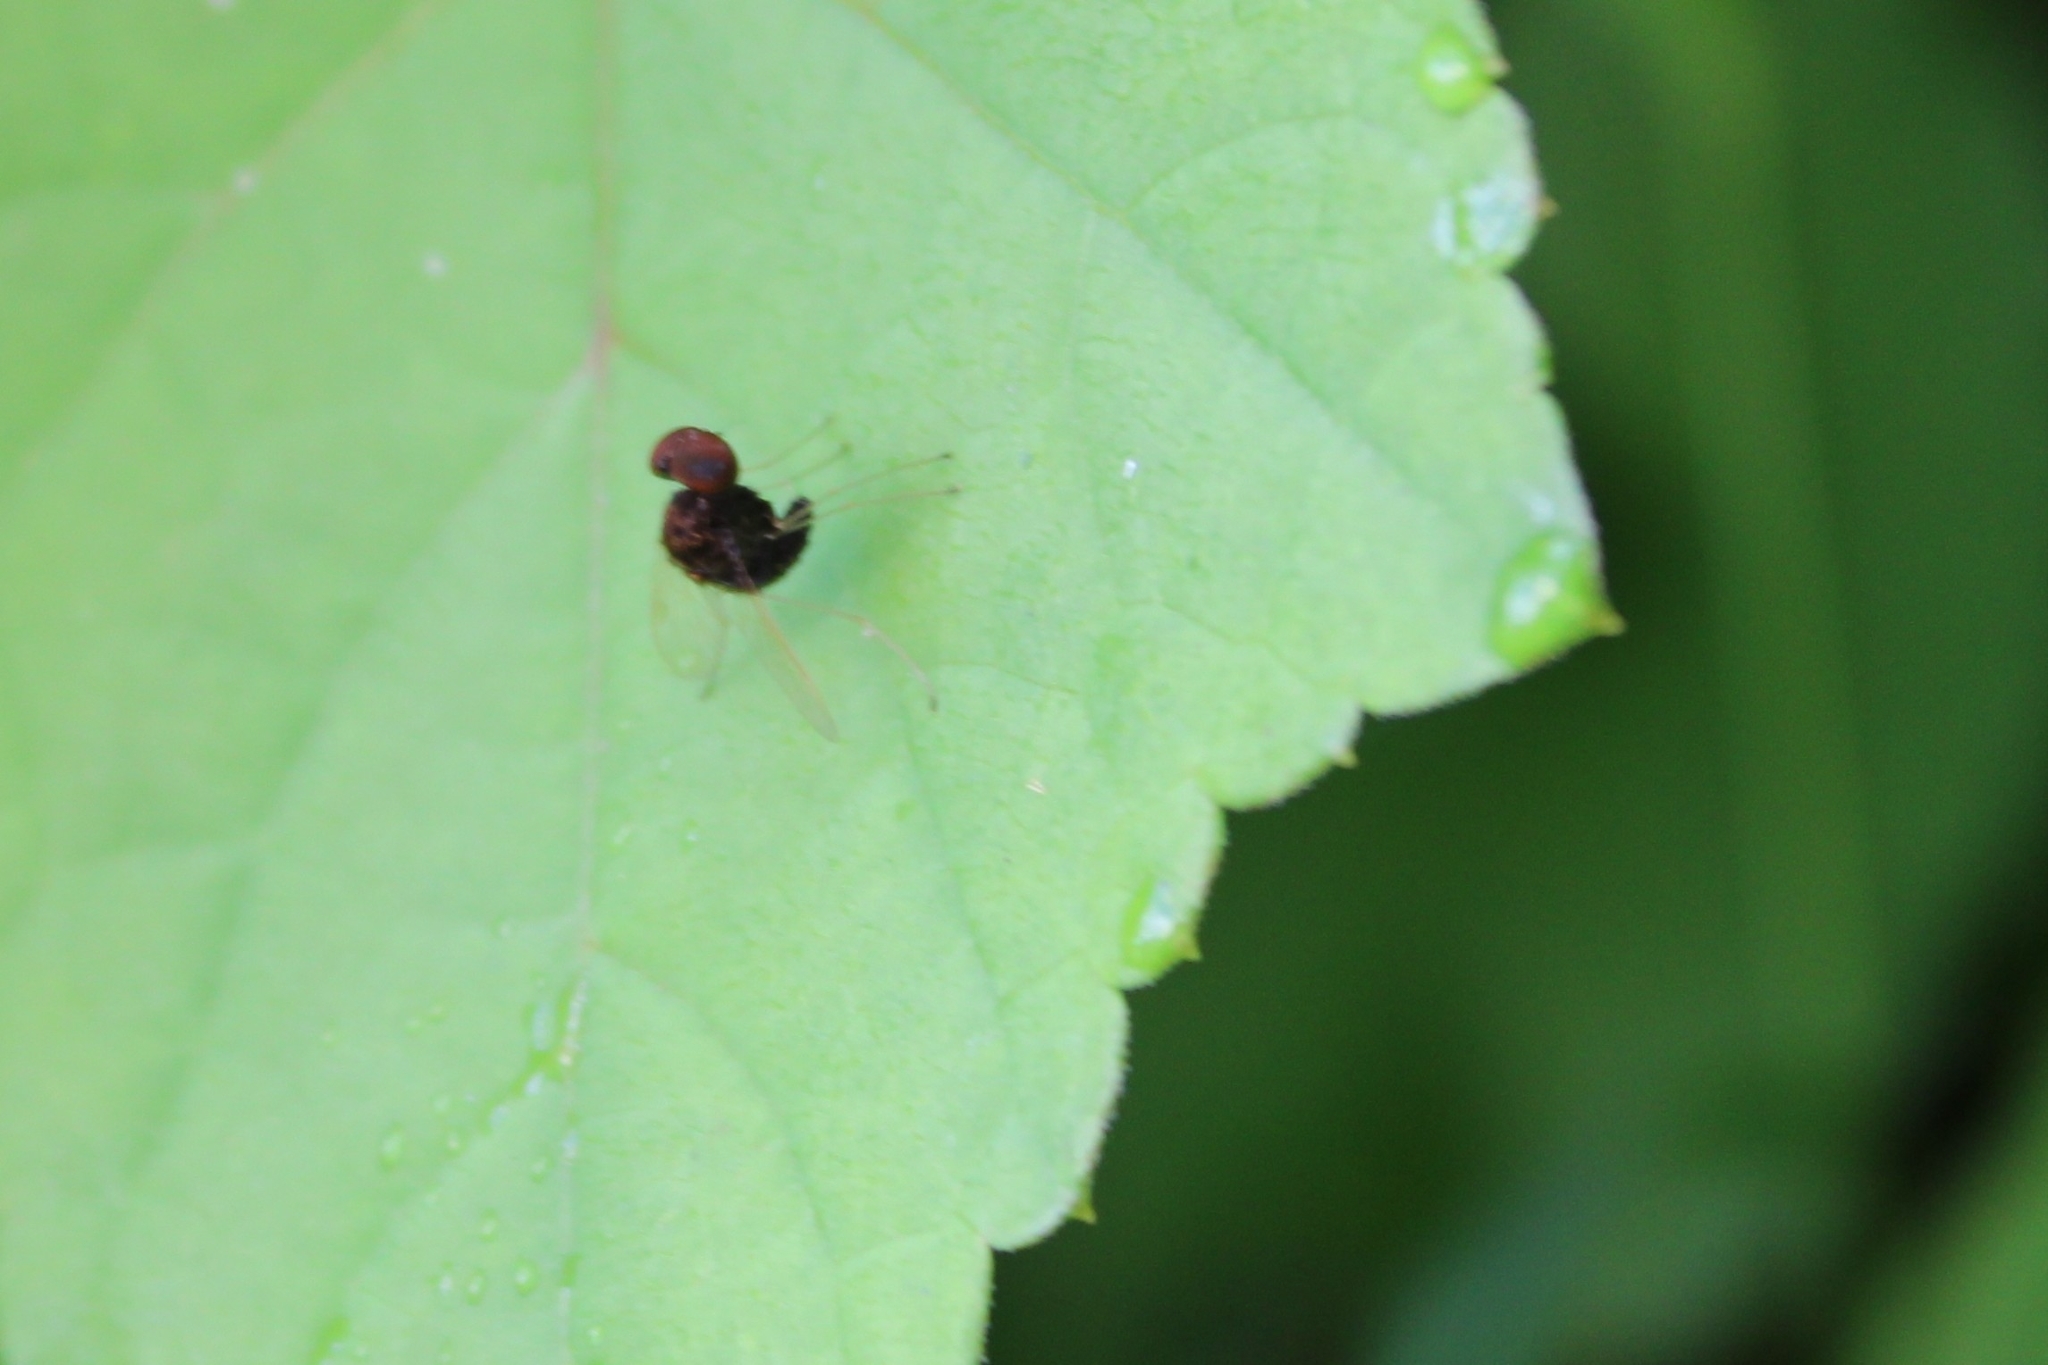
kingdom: Animalia
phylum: Arthropoda
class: Insecta
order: Diptera
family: Rhagionidae
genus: Chrysopilus
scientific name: Chrysopilus basilaris
